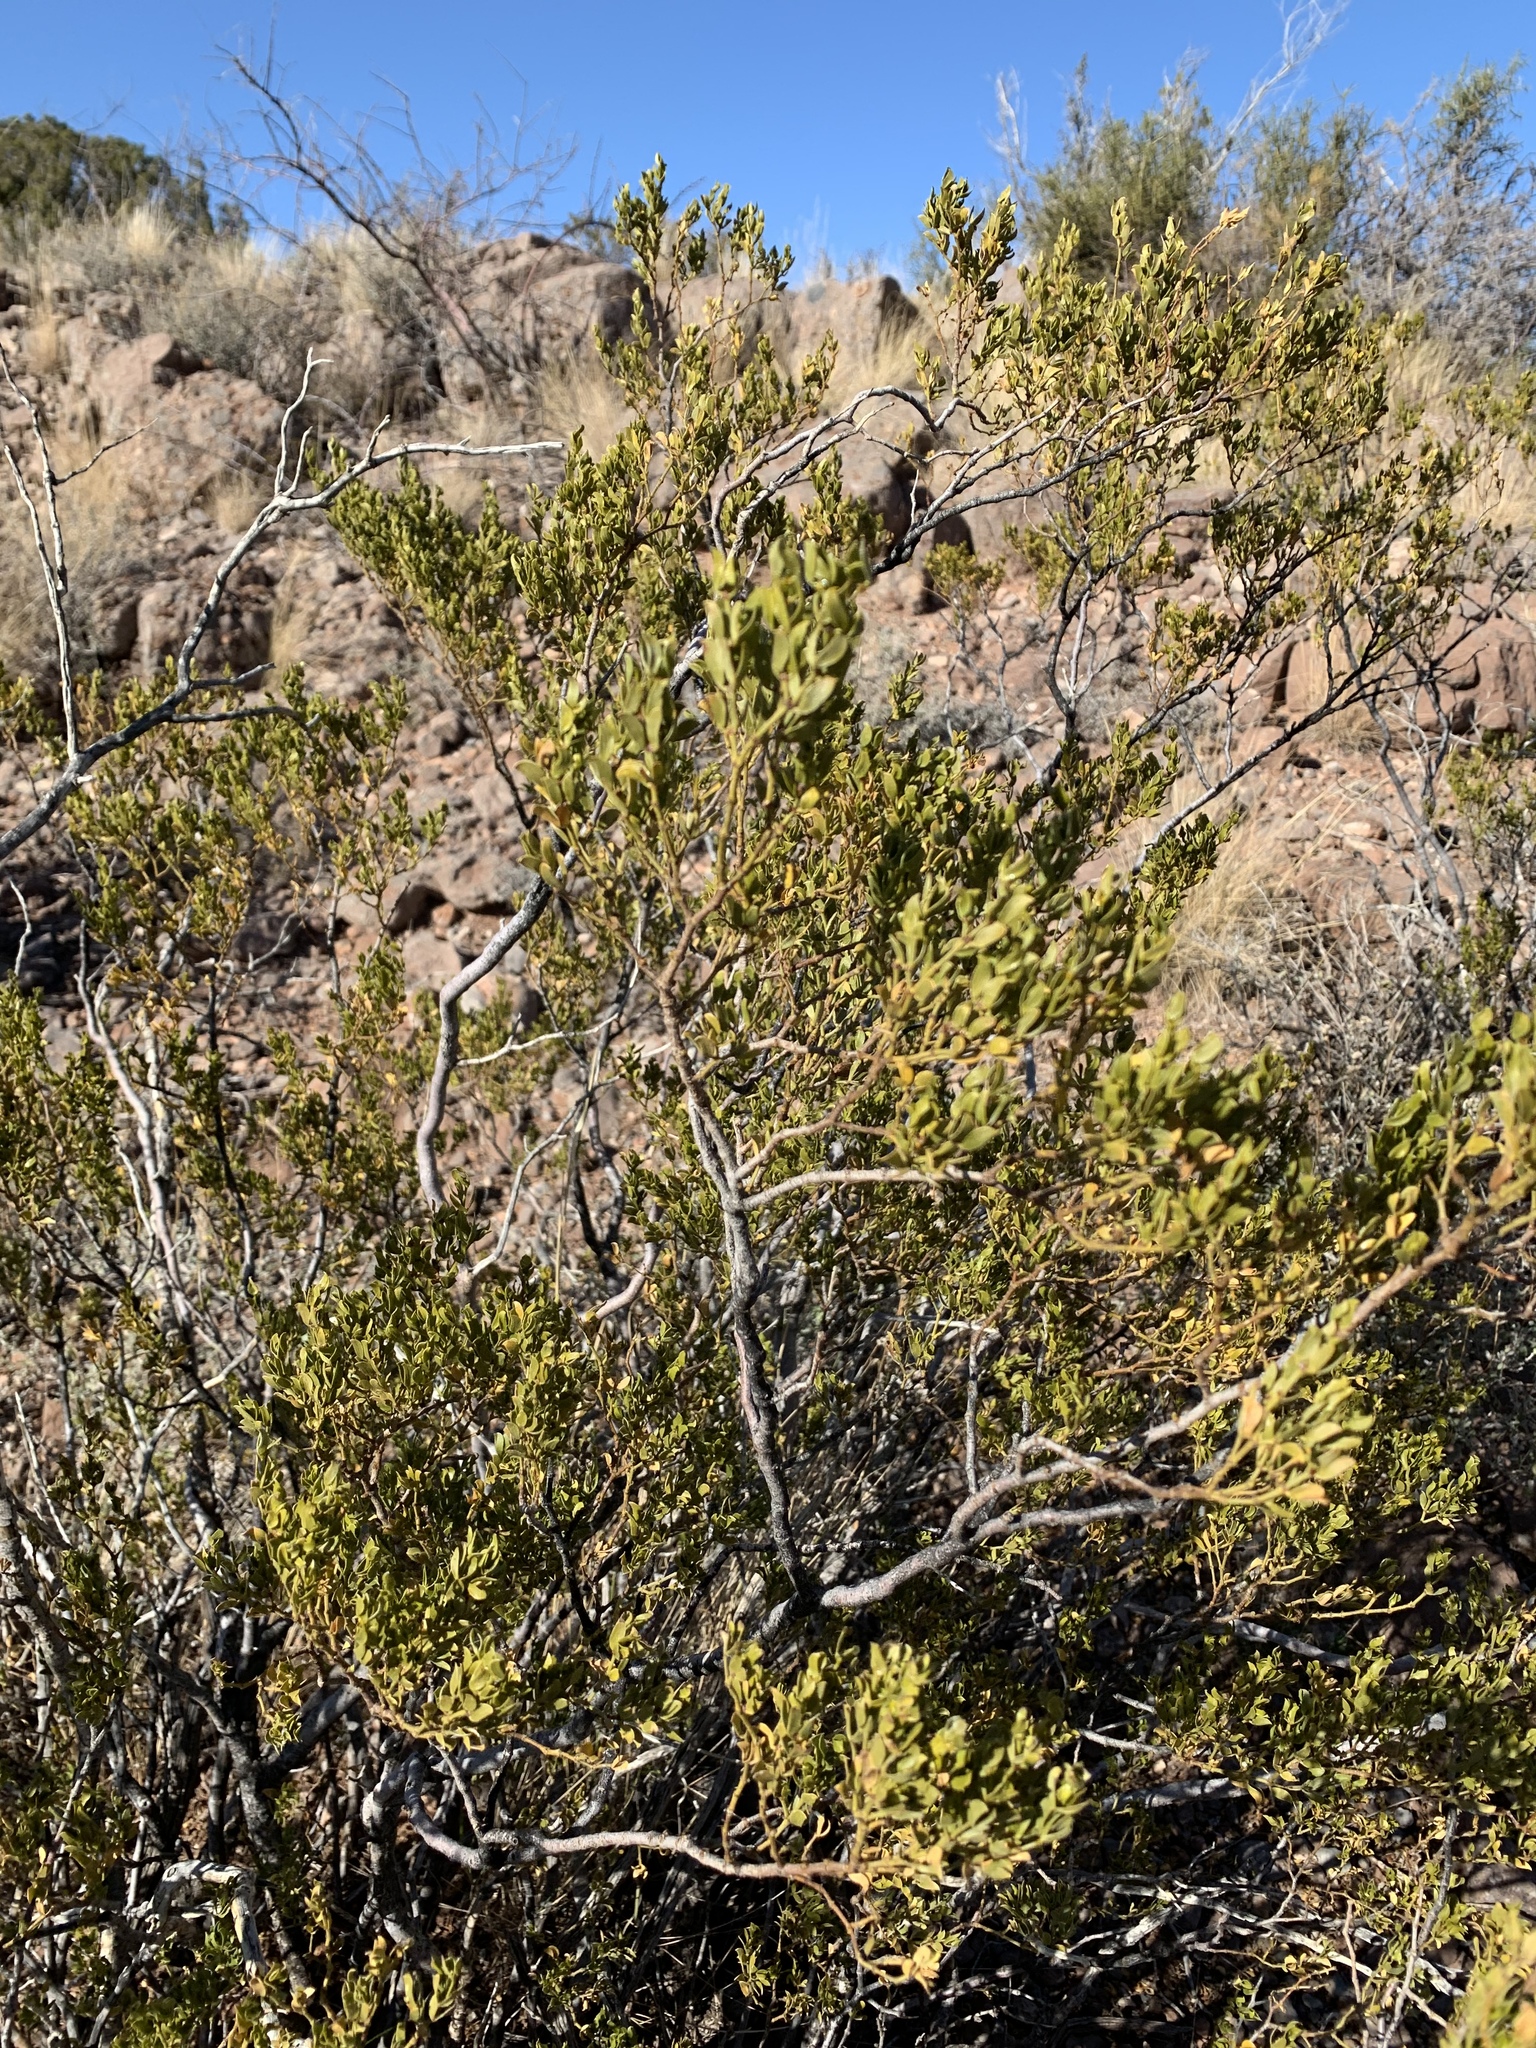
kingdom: Plantae
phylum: Tracheophyta
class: Magnoliopsida
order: Zygophyllales
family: Zygophyllaceae
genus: Larrea
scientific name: Larrea tridentata
